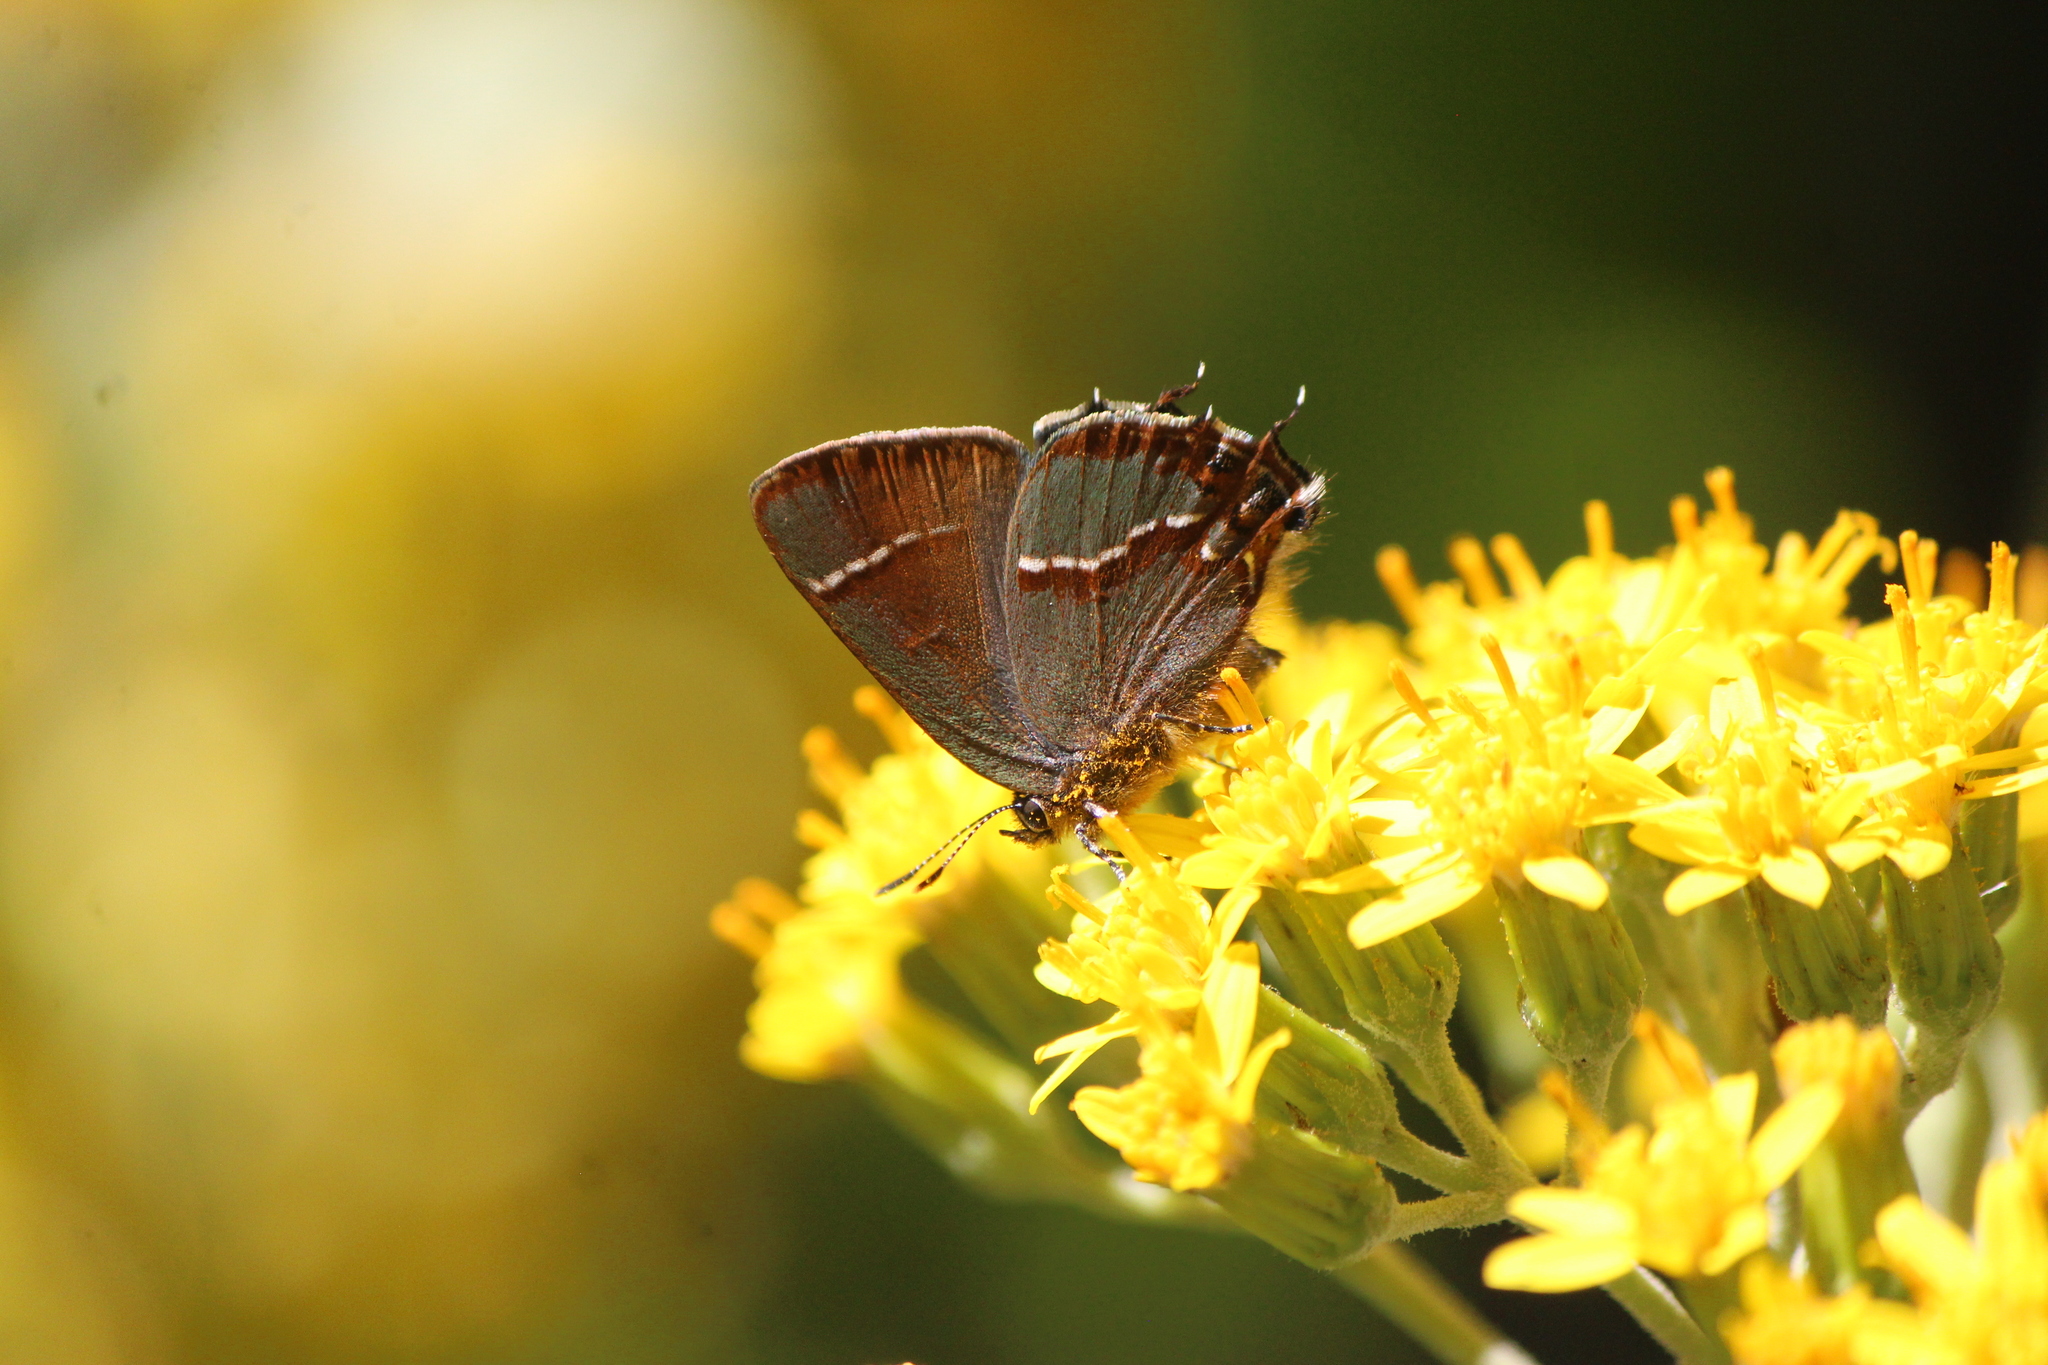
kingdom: Animalia
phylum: Arthropoda
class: Insecta
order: Lepidoptera
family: Lycaenidae
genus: Callophrys
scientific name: Callophrys
